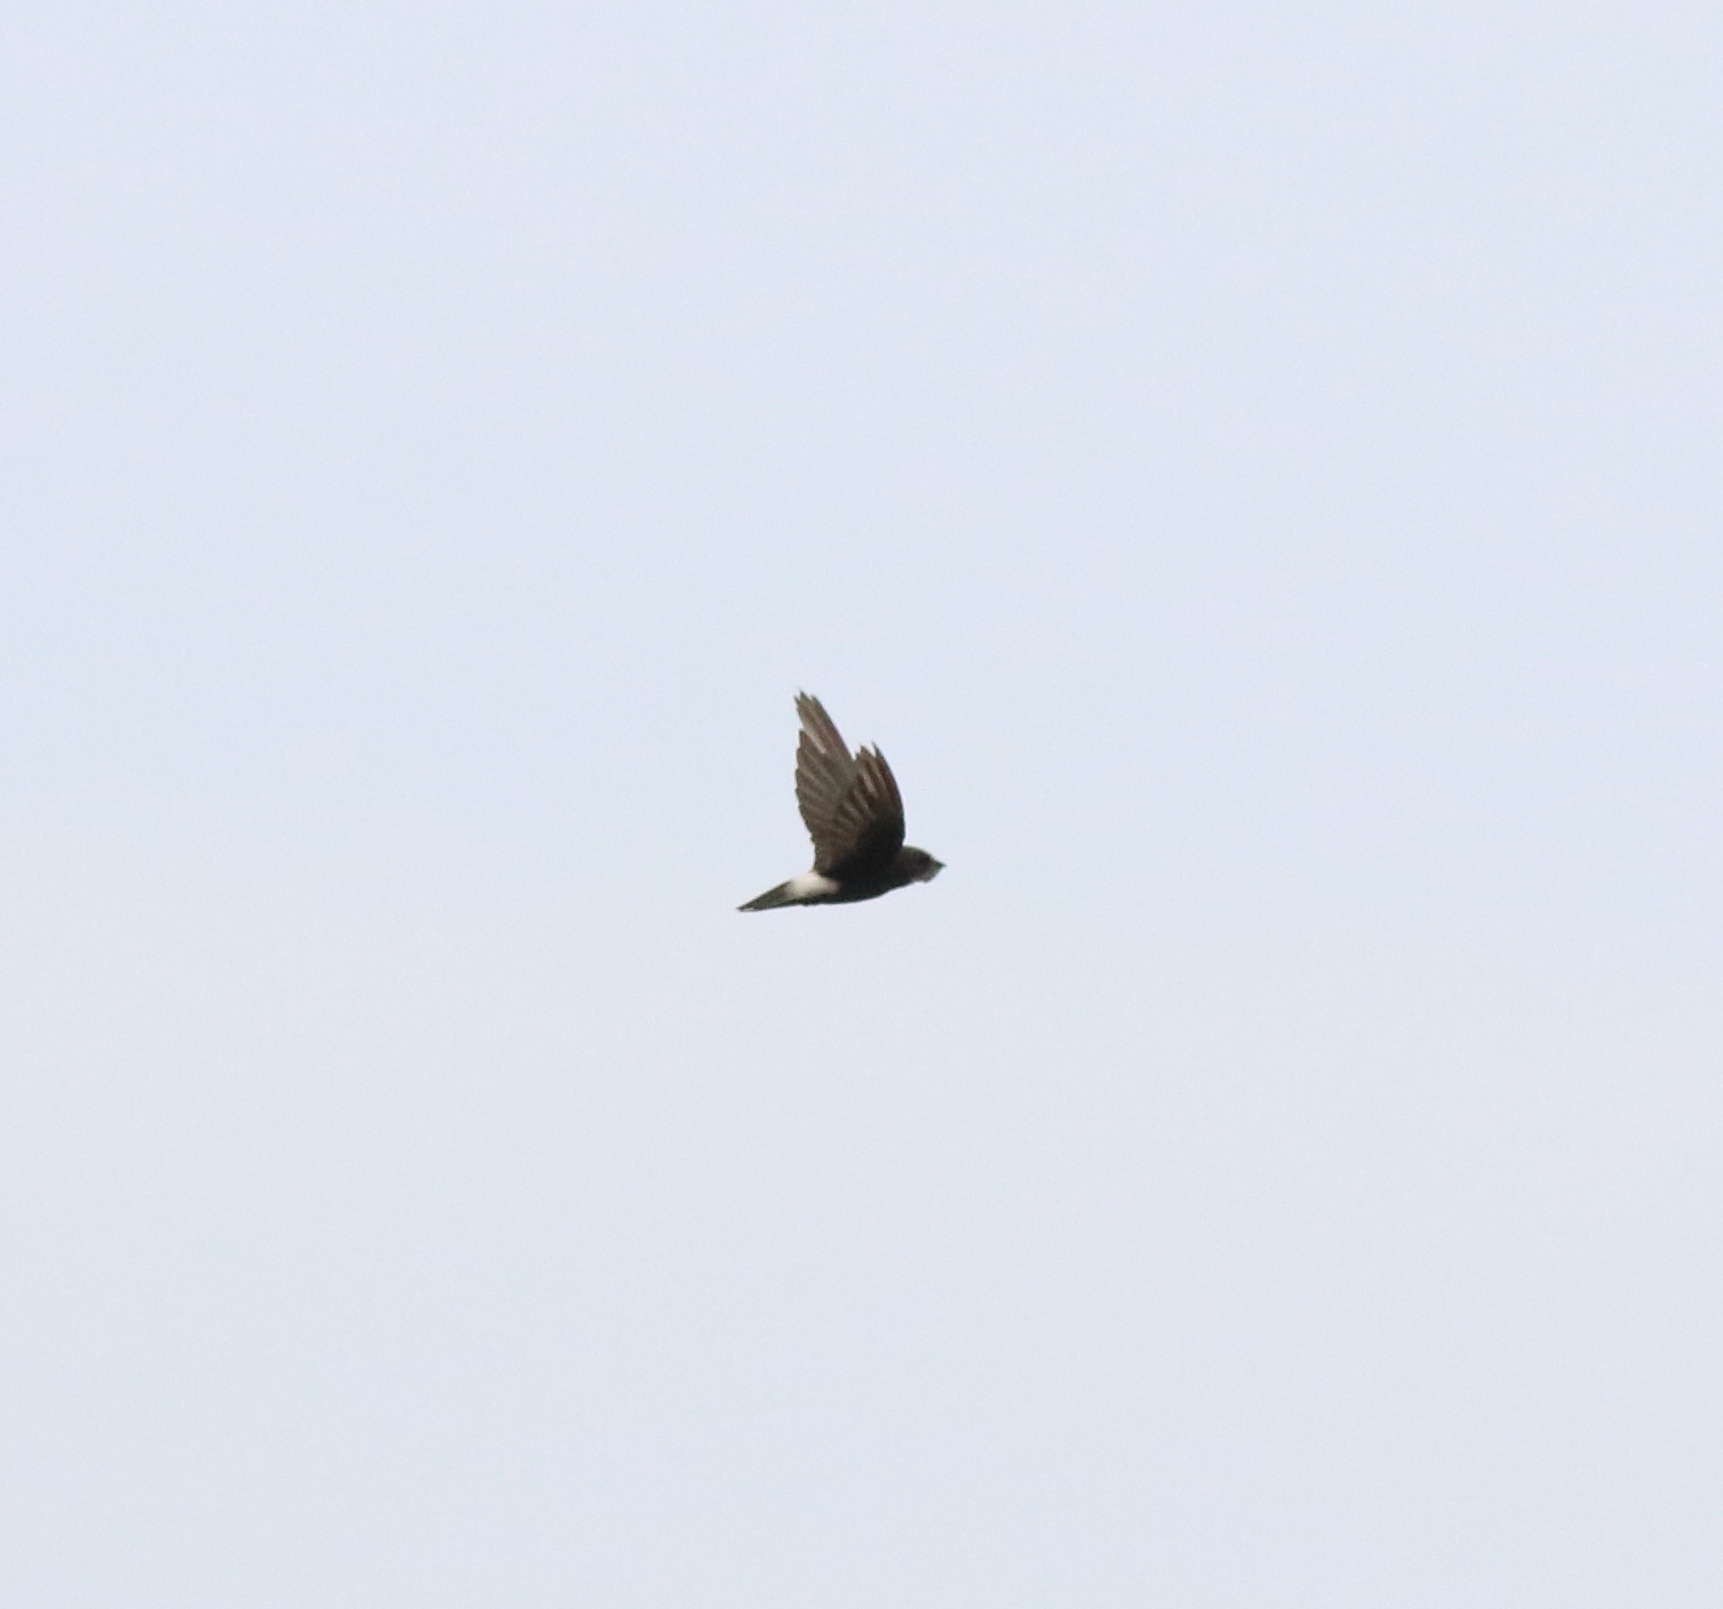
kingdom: Animalia
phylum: Chordata
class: Aves
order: Apodiformes
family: Apodidae
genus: Apus
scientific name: Apus affinis
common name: Little swift
